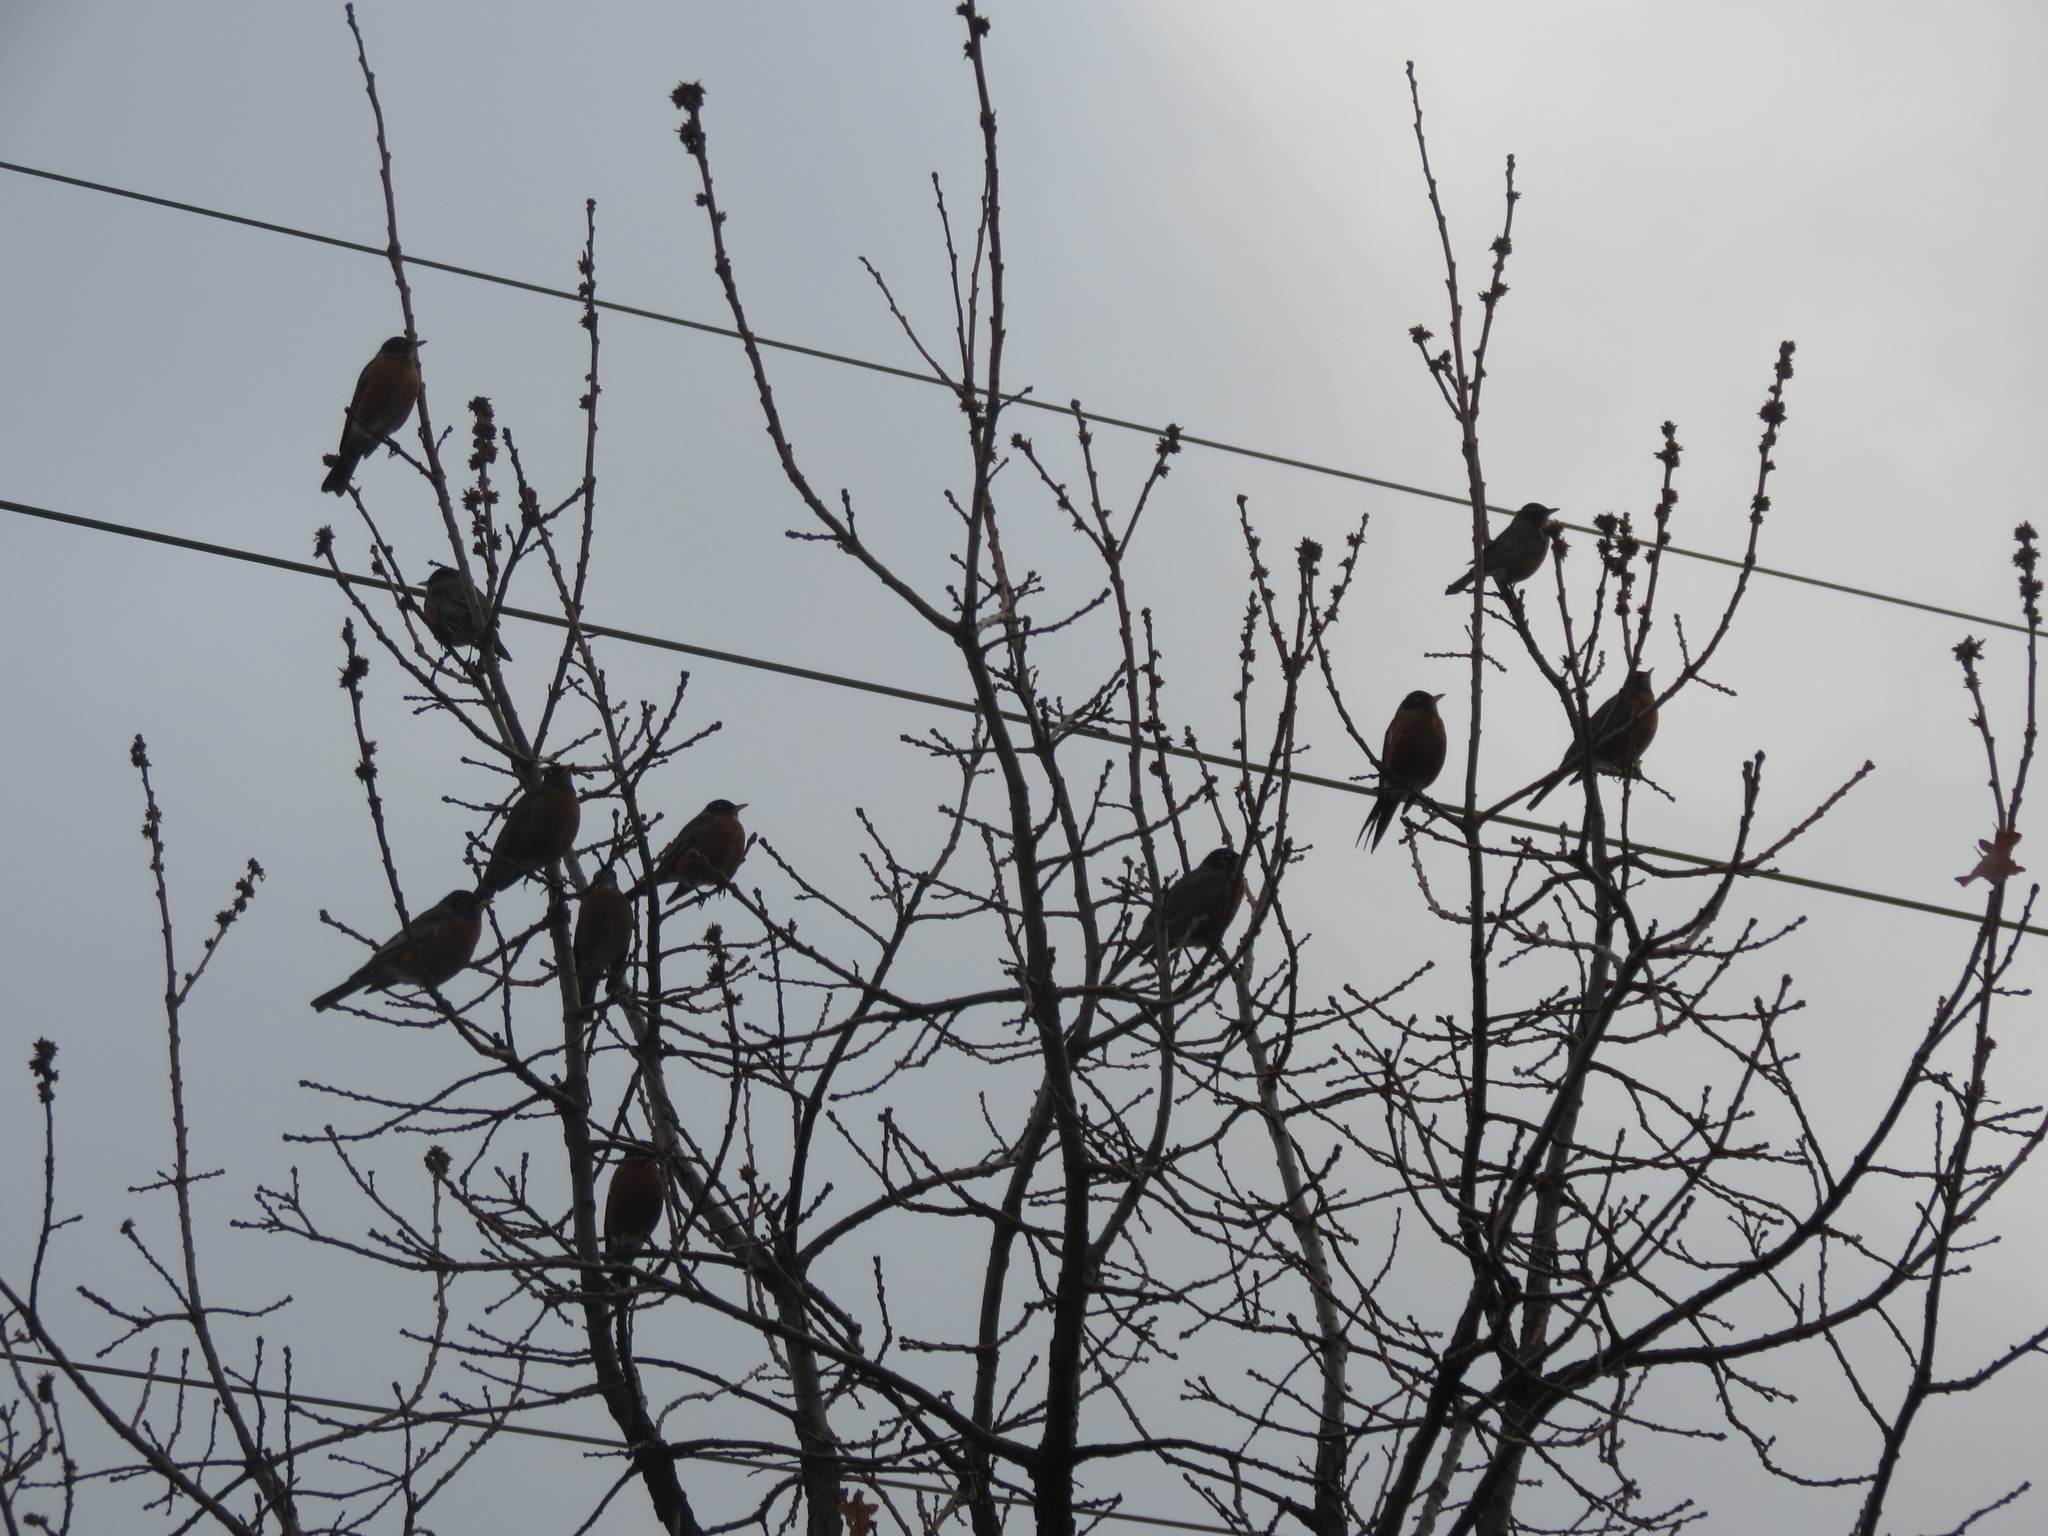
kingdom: Animalia
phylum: Chordata
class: Aves
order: Passeriformes
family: Turdidae
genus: Turdus
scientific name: Turdus migratorius
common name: American robin
